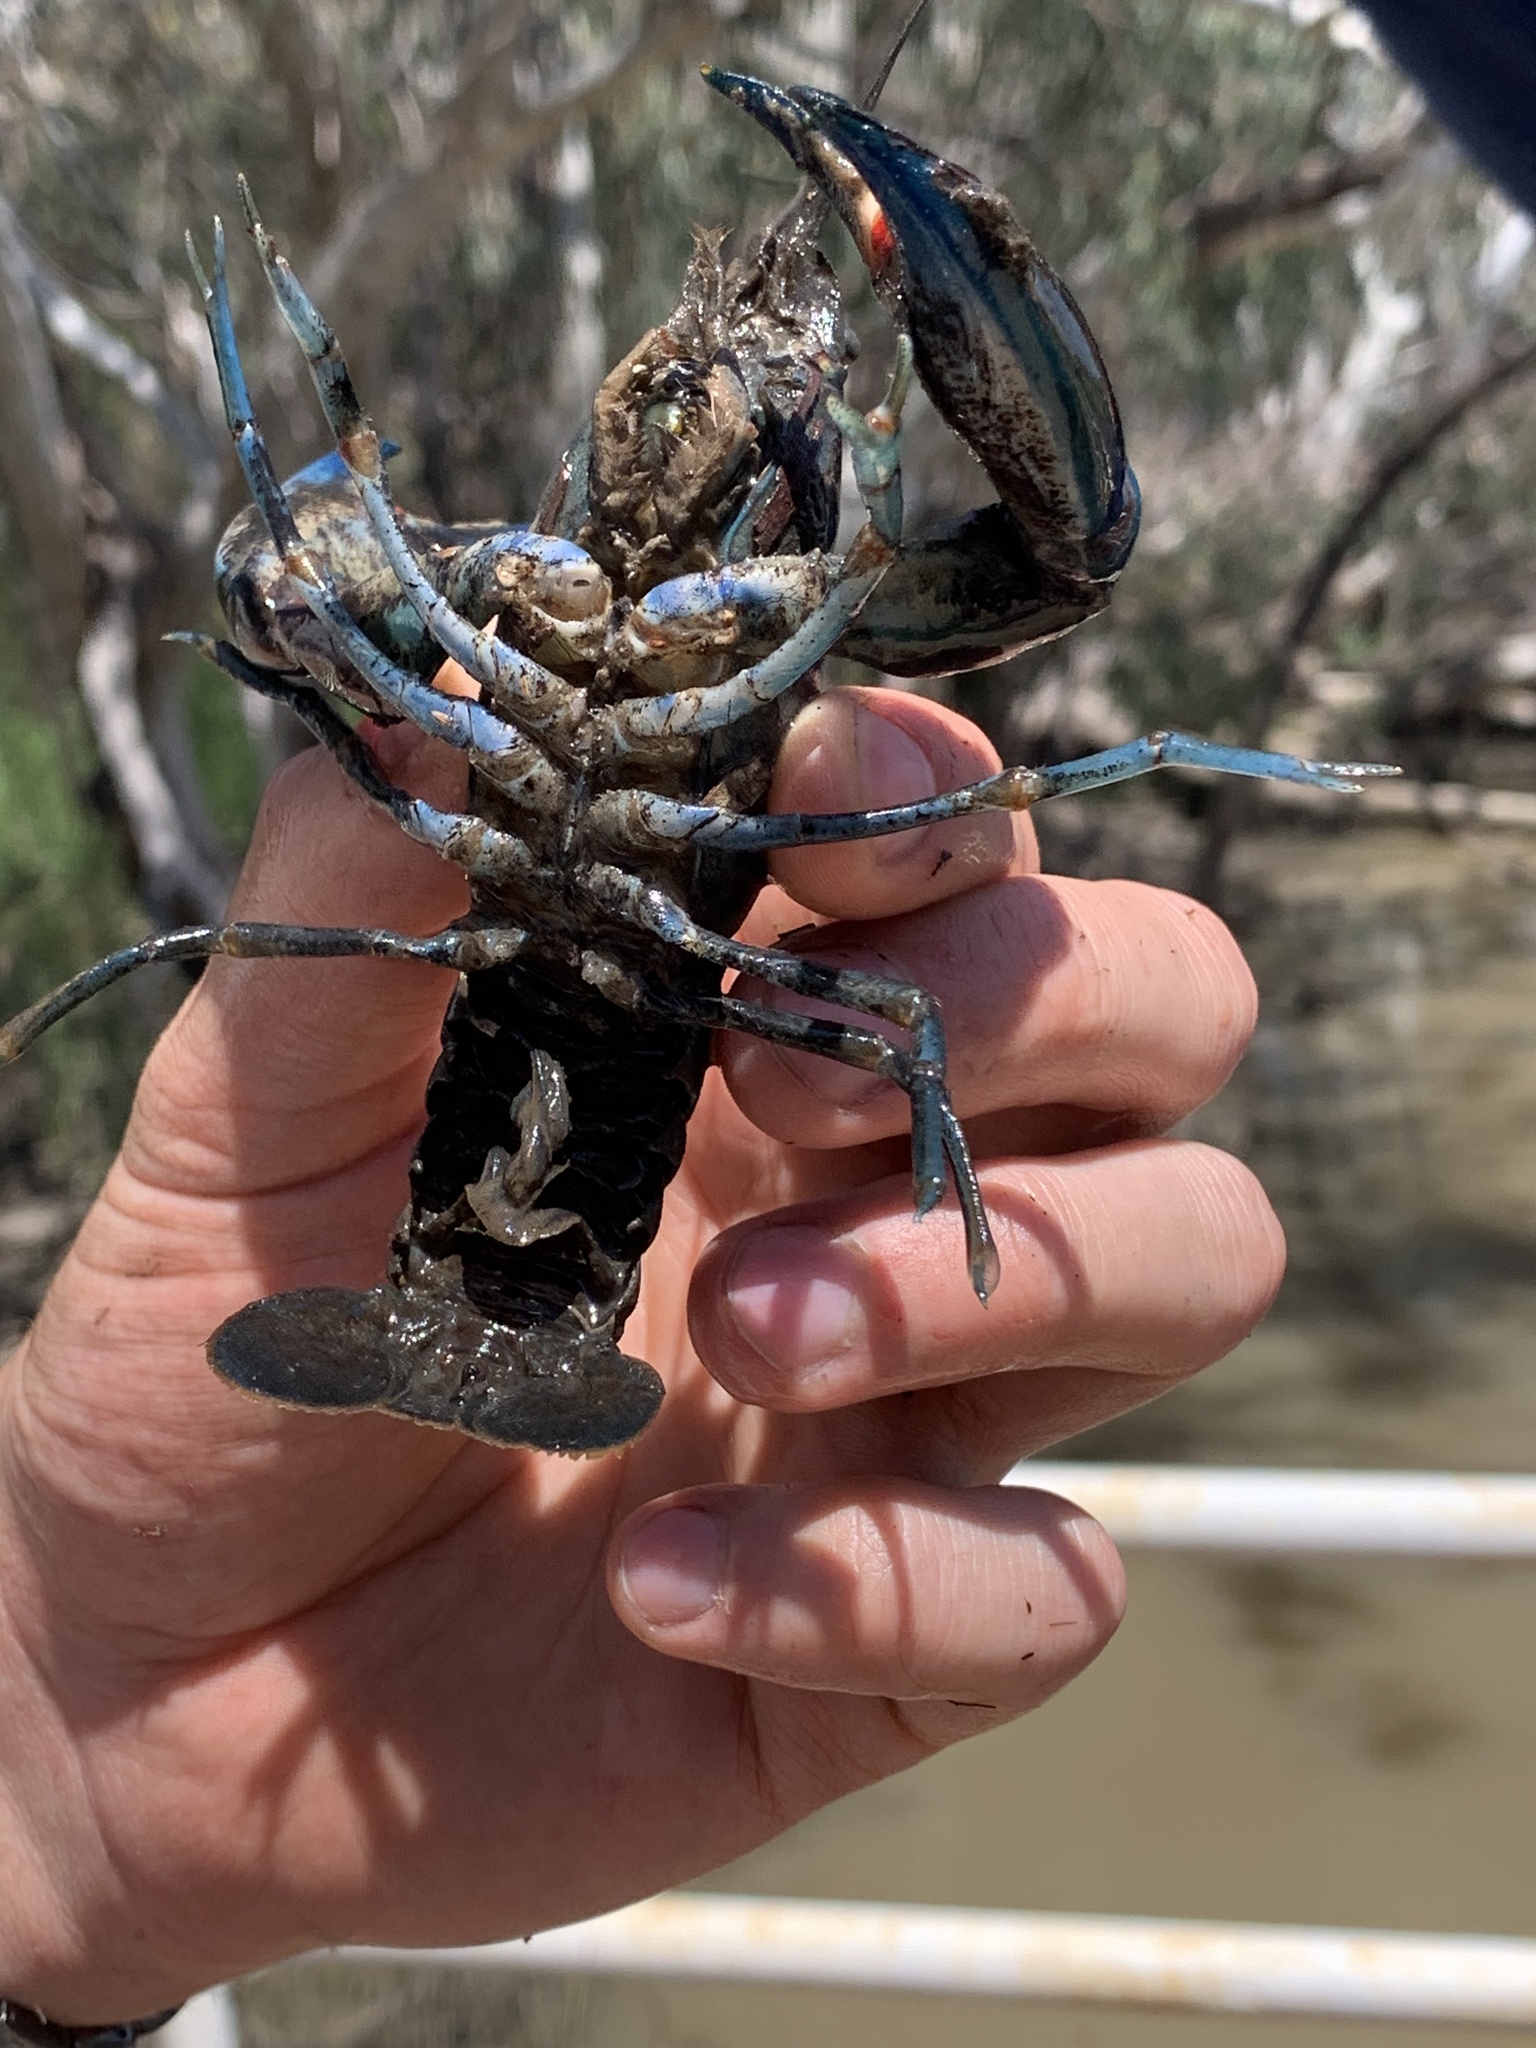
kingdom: Animalia
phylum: Arthropoda
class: Malacostraca
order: Decapoda
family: Parastacidae
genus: Cherax
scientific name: Cherax destructor
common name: Yabby
